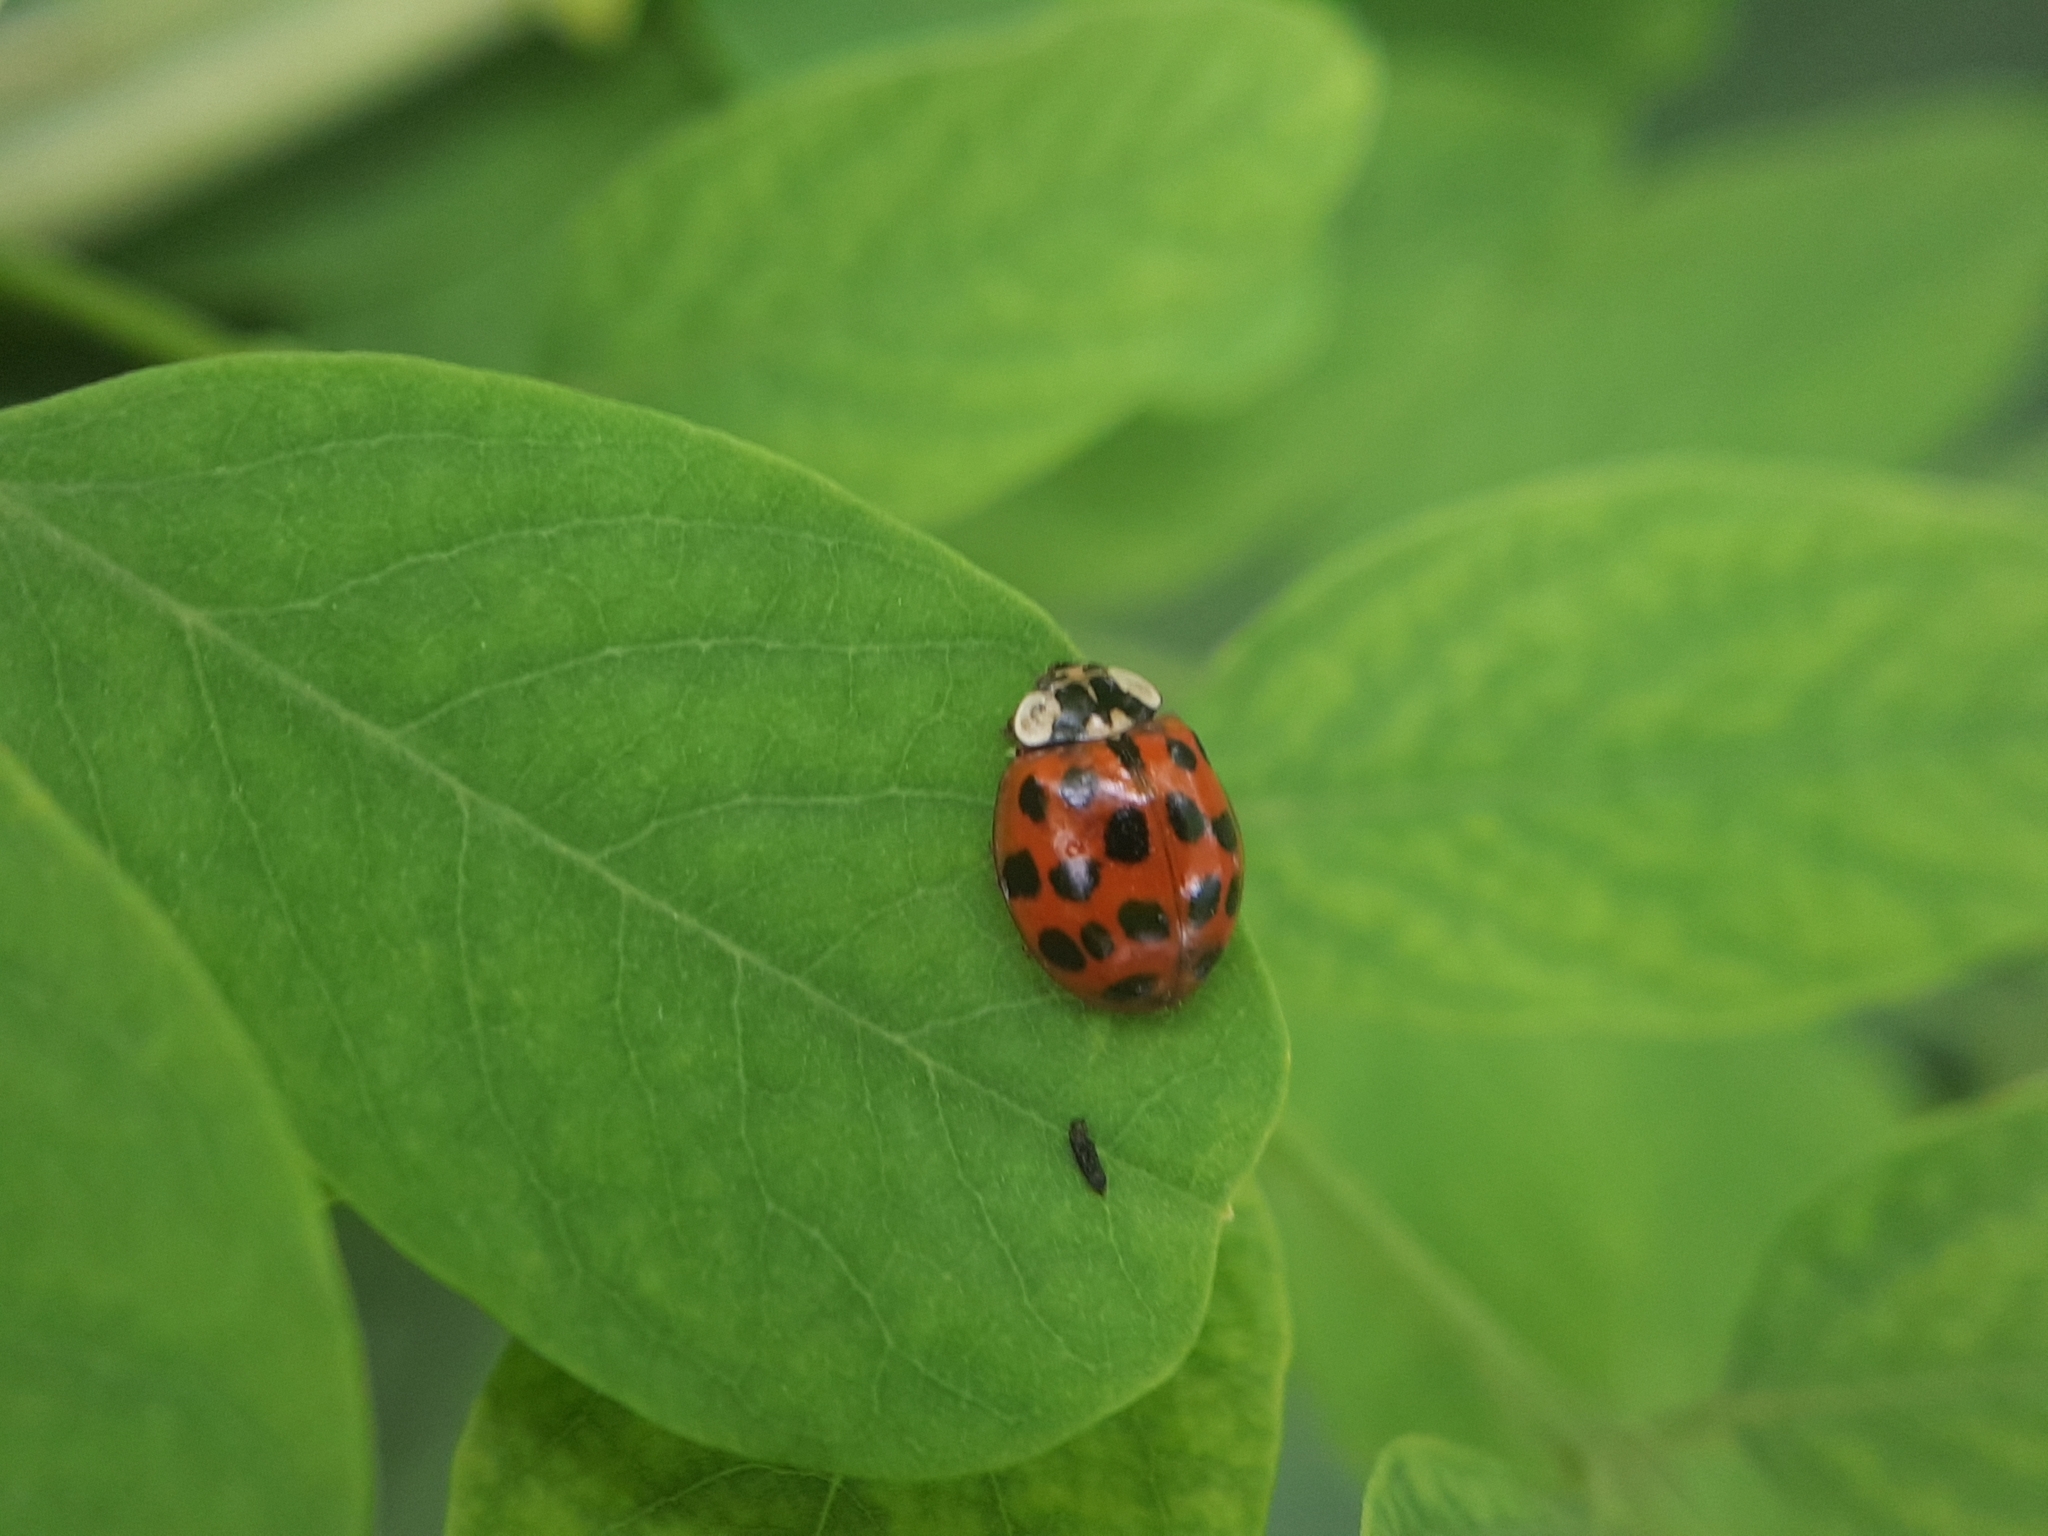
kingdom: Animalia
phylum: Arthropoda
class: Insecta
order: Coleoptera
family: Coccinellidae
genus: Harmonia
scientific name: Harmonia axyridis
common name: Harlequin ladybird
